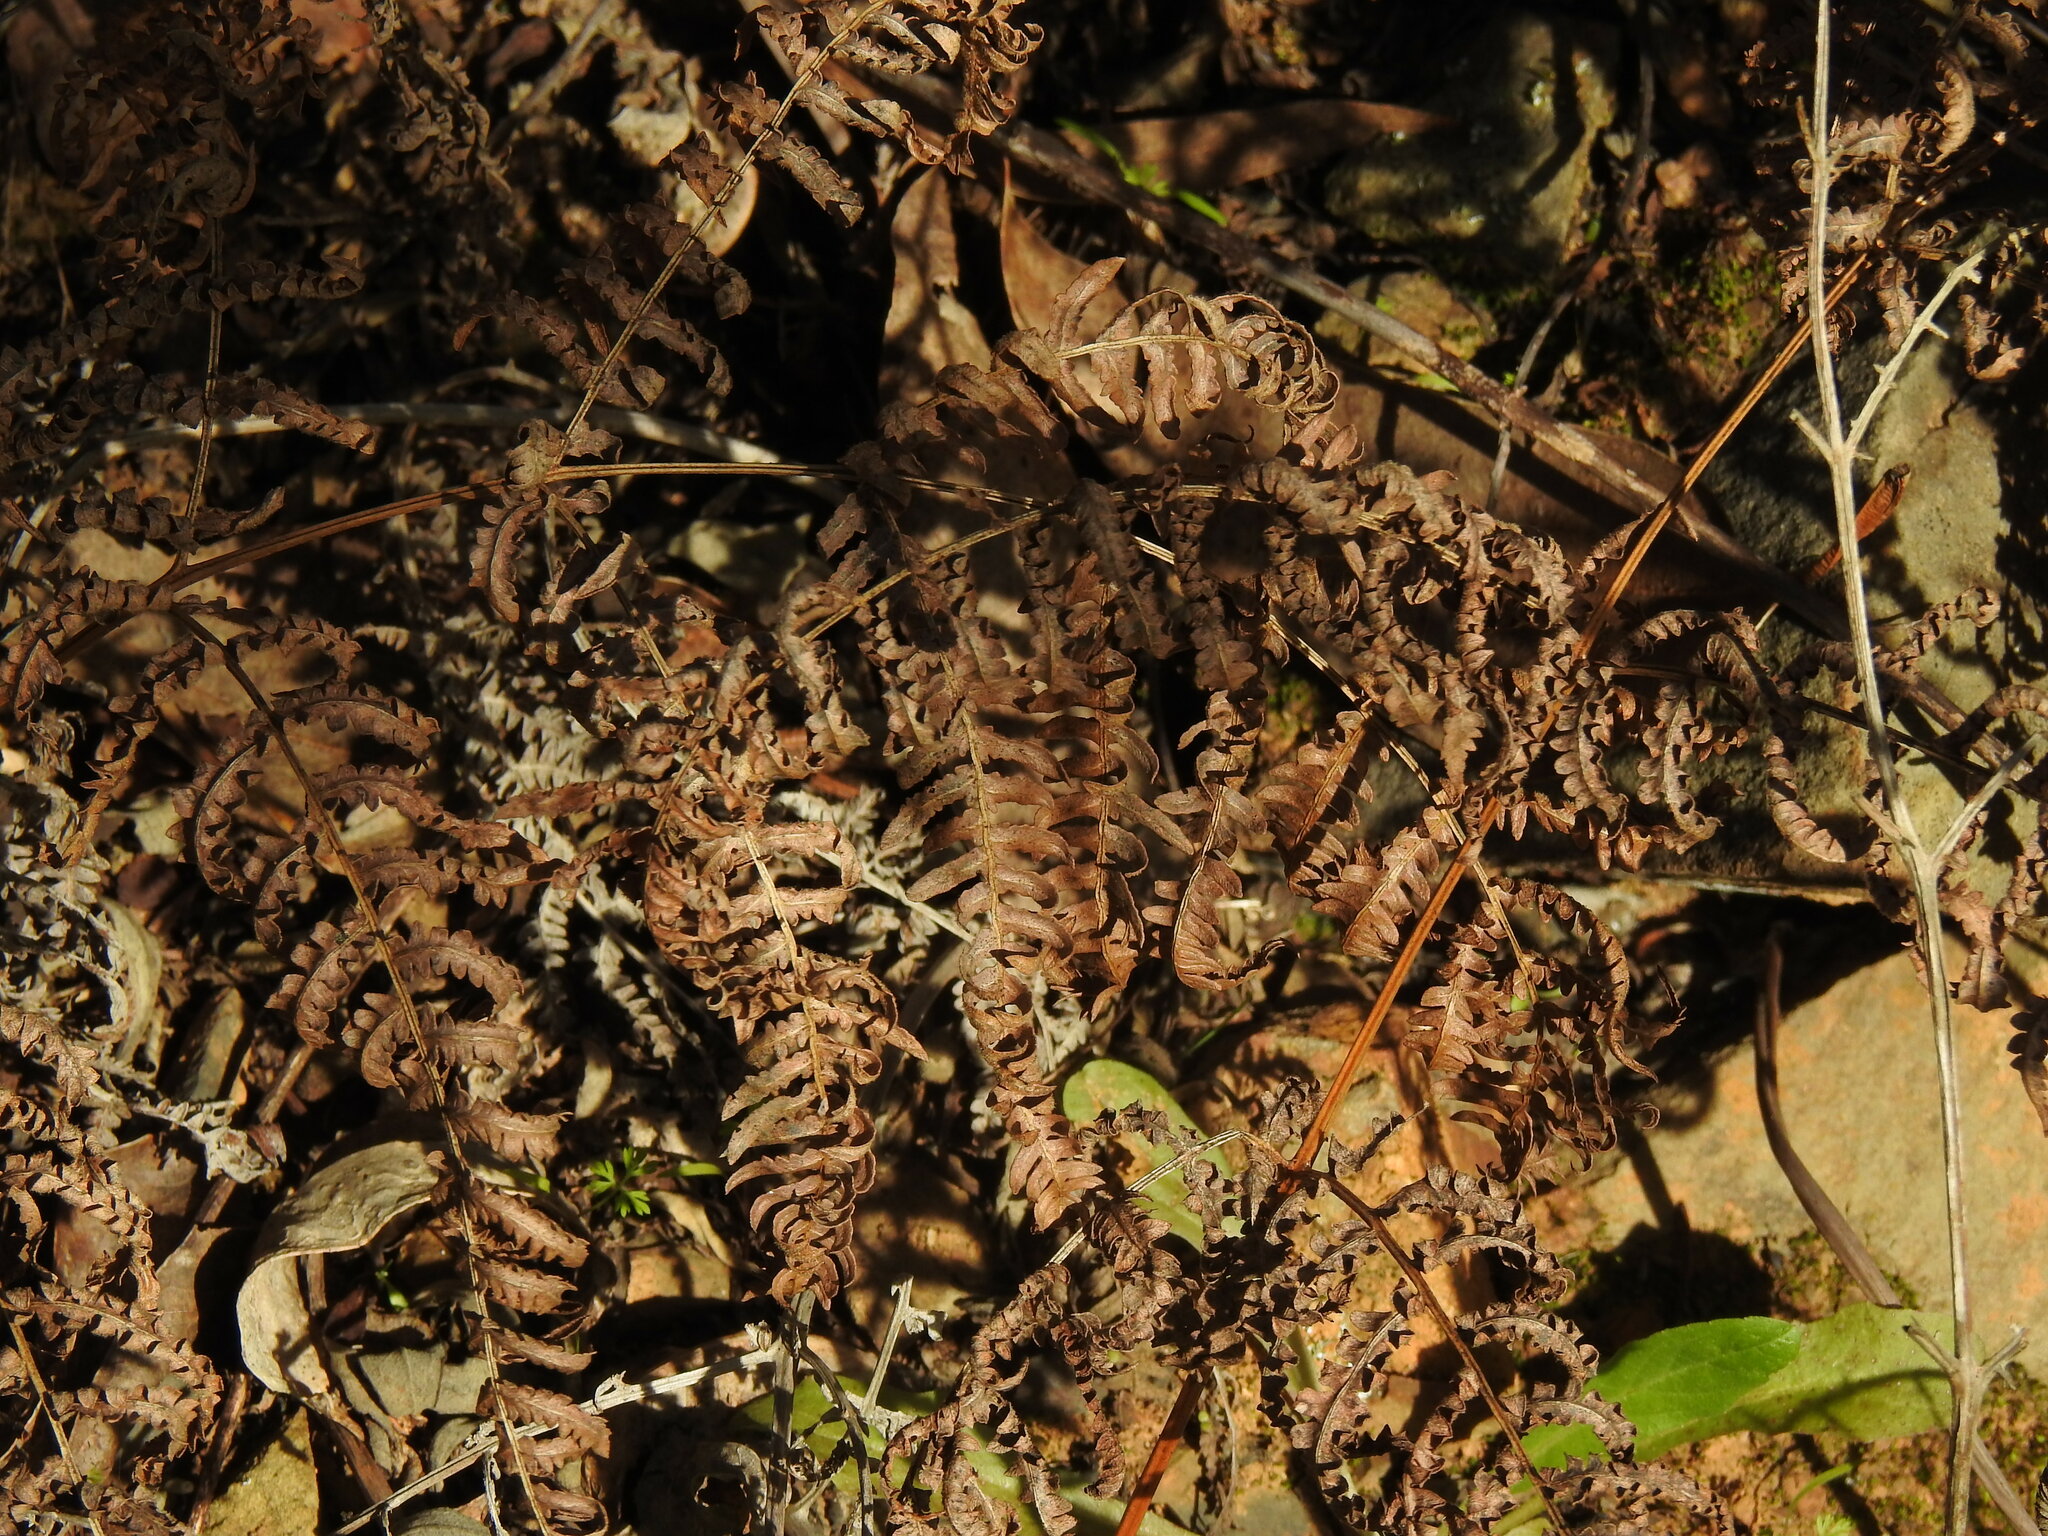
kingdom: Plantae
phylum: Tracheophyta
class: Polypodiopsida
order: Polypodiales
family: Dennstaedtiaceae
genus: Pteridium
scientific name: Pteridium aquilinum
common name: Bracken
